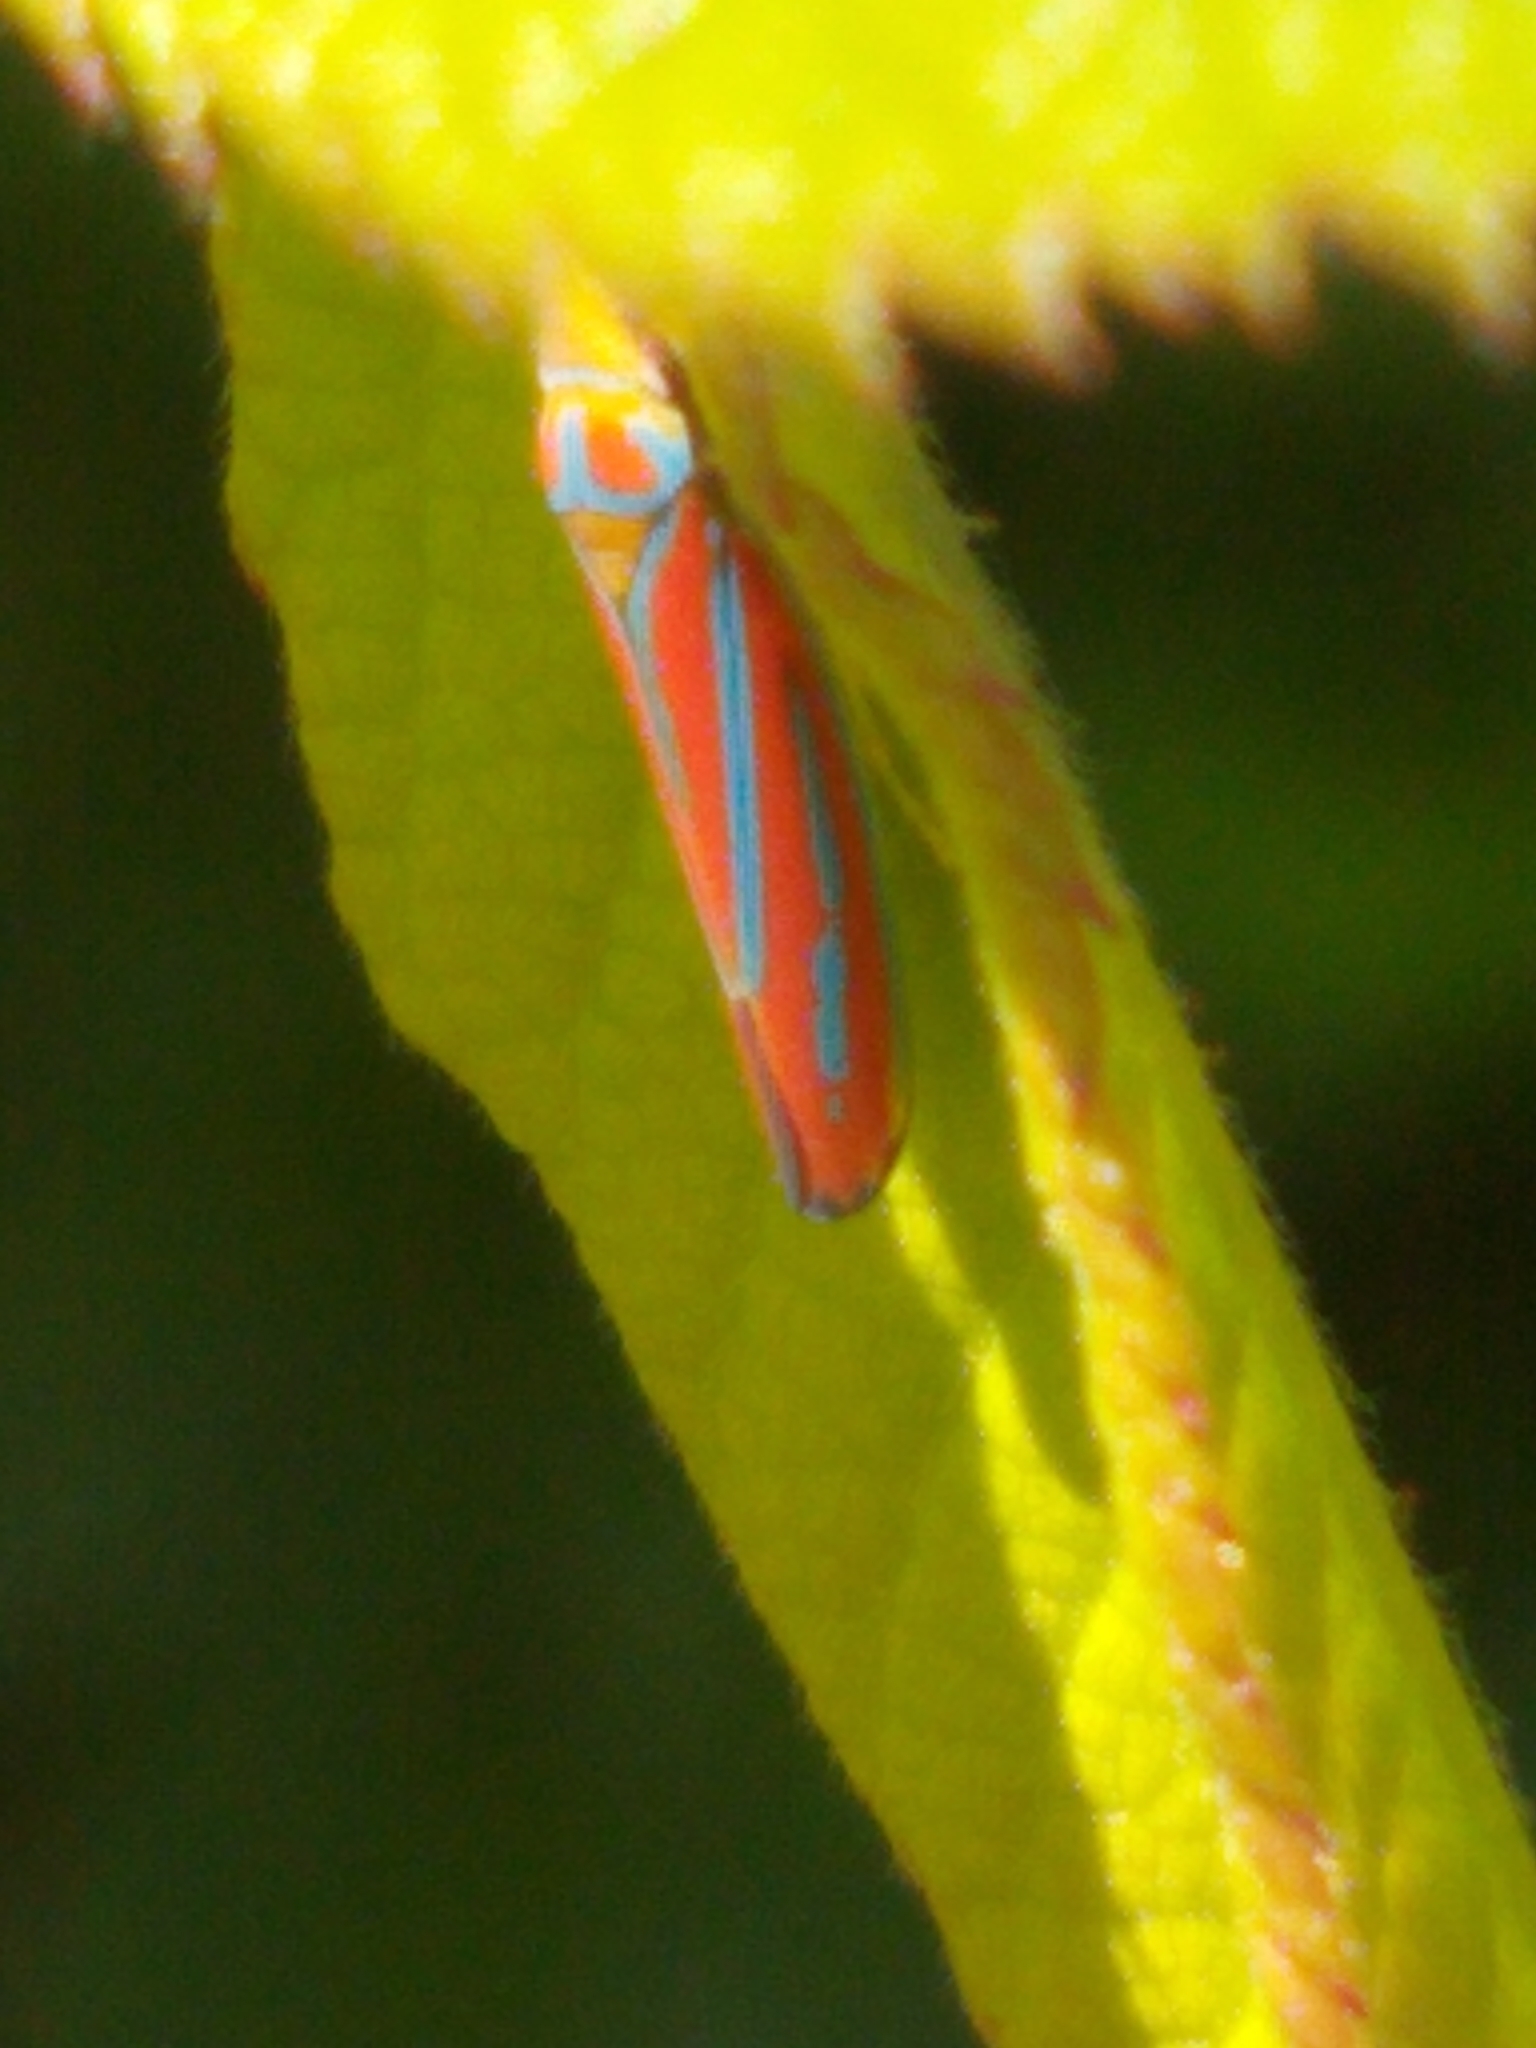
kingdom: Animalia
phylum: Arthropoda
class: Insecta
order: Hemiptera
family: Cicadellidae
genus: Graphocephala
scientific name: Graphocephala coccinea
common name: Candy-striped leafhopper
